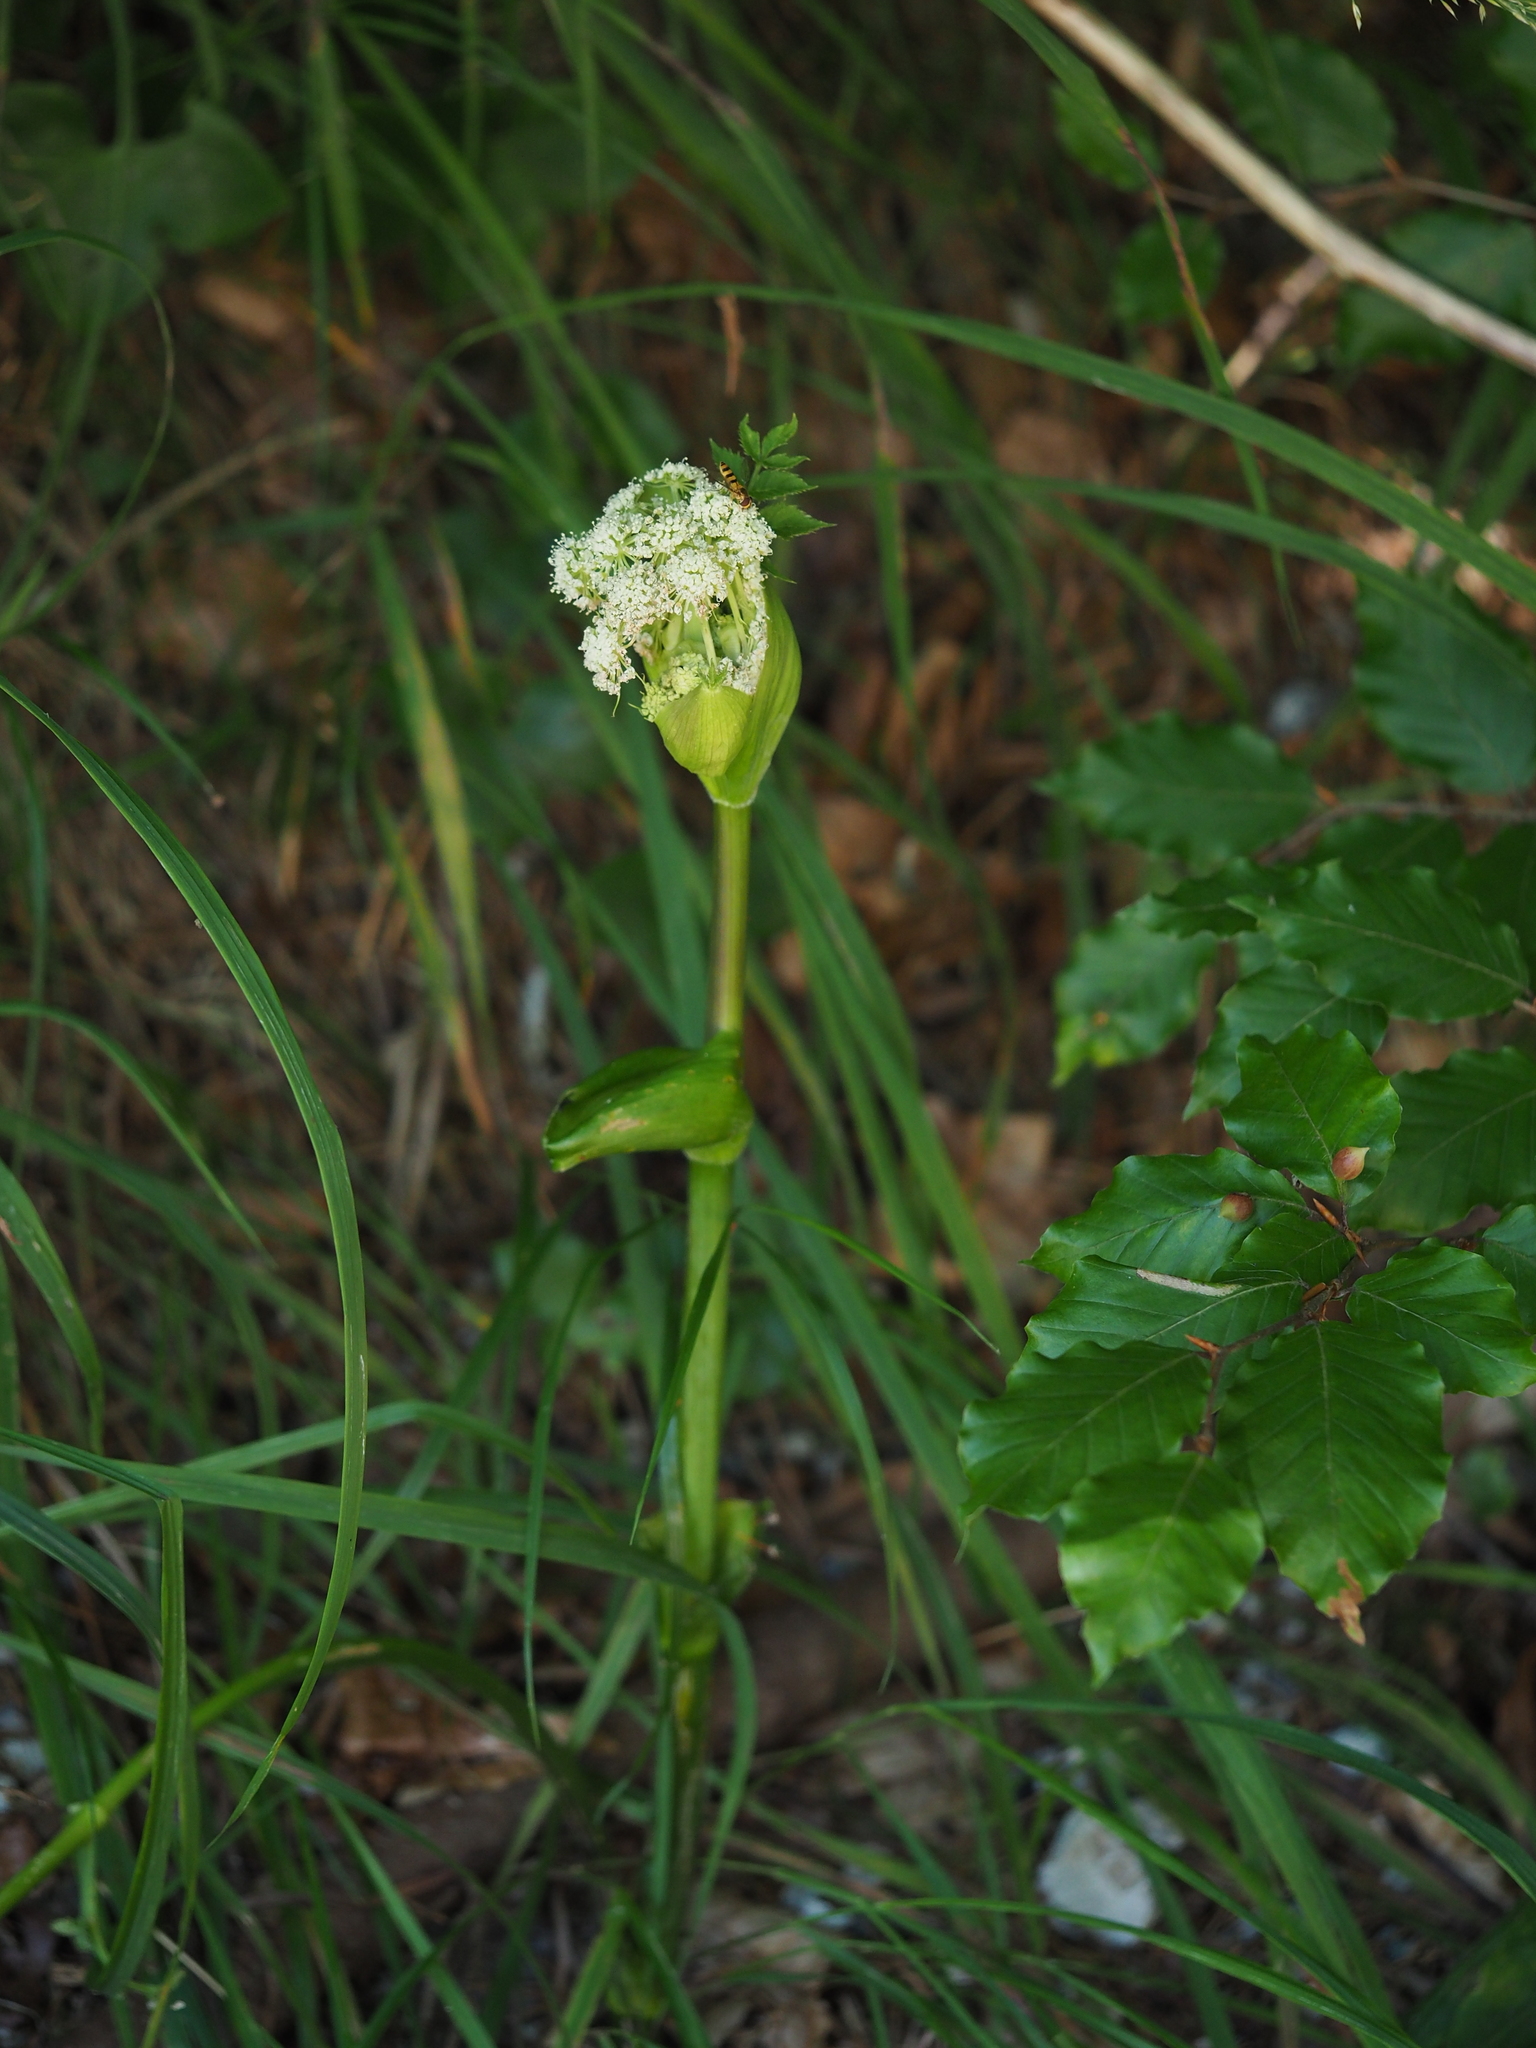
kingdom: Plantae
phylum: Tracheophyta
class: Magnoliopsida
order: Apiales
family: Apiaceae
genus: Angelica
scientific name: Angelica sylvestris
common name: Wild angelica
